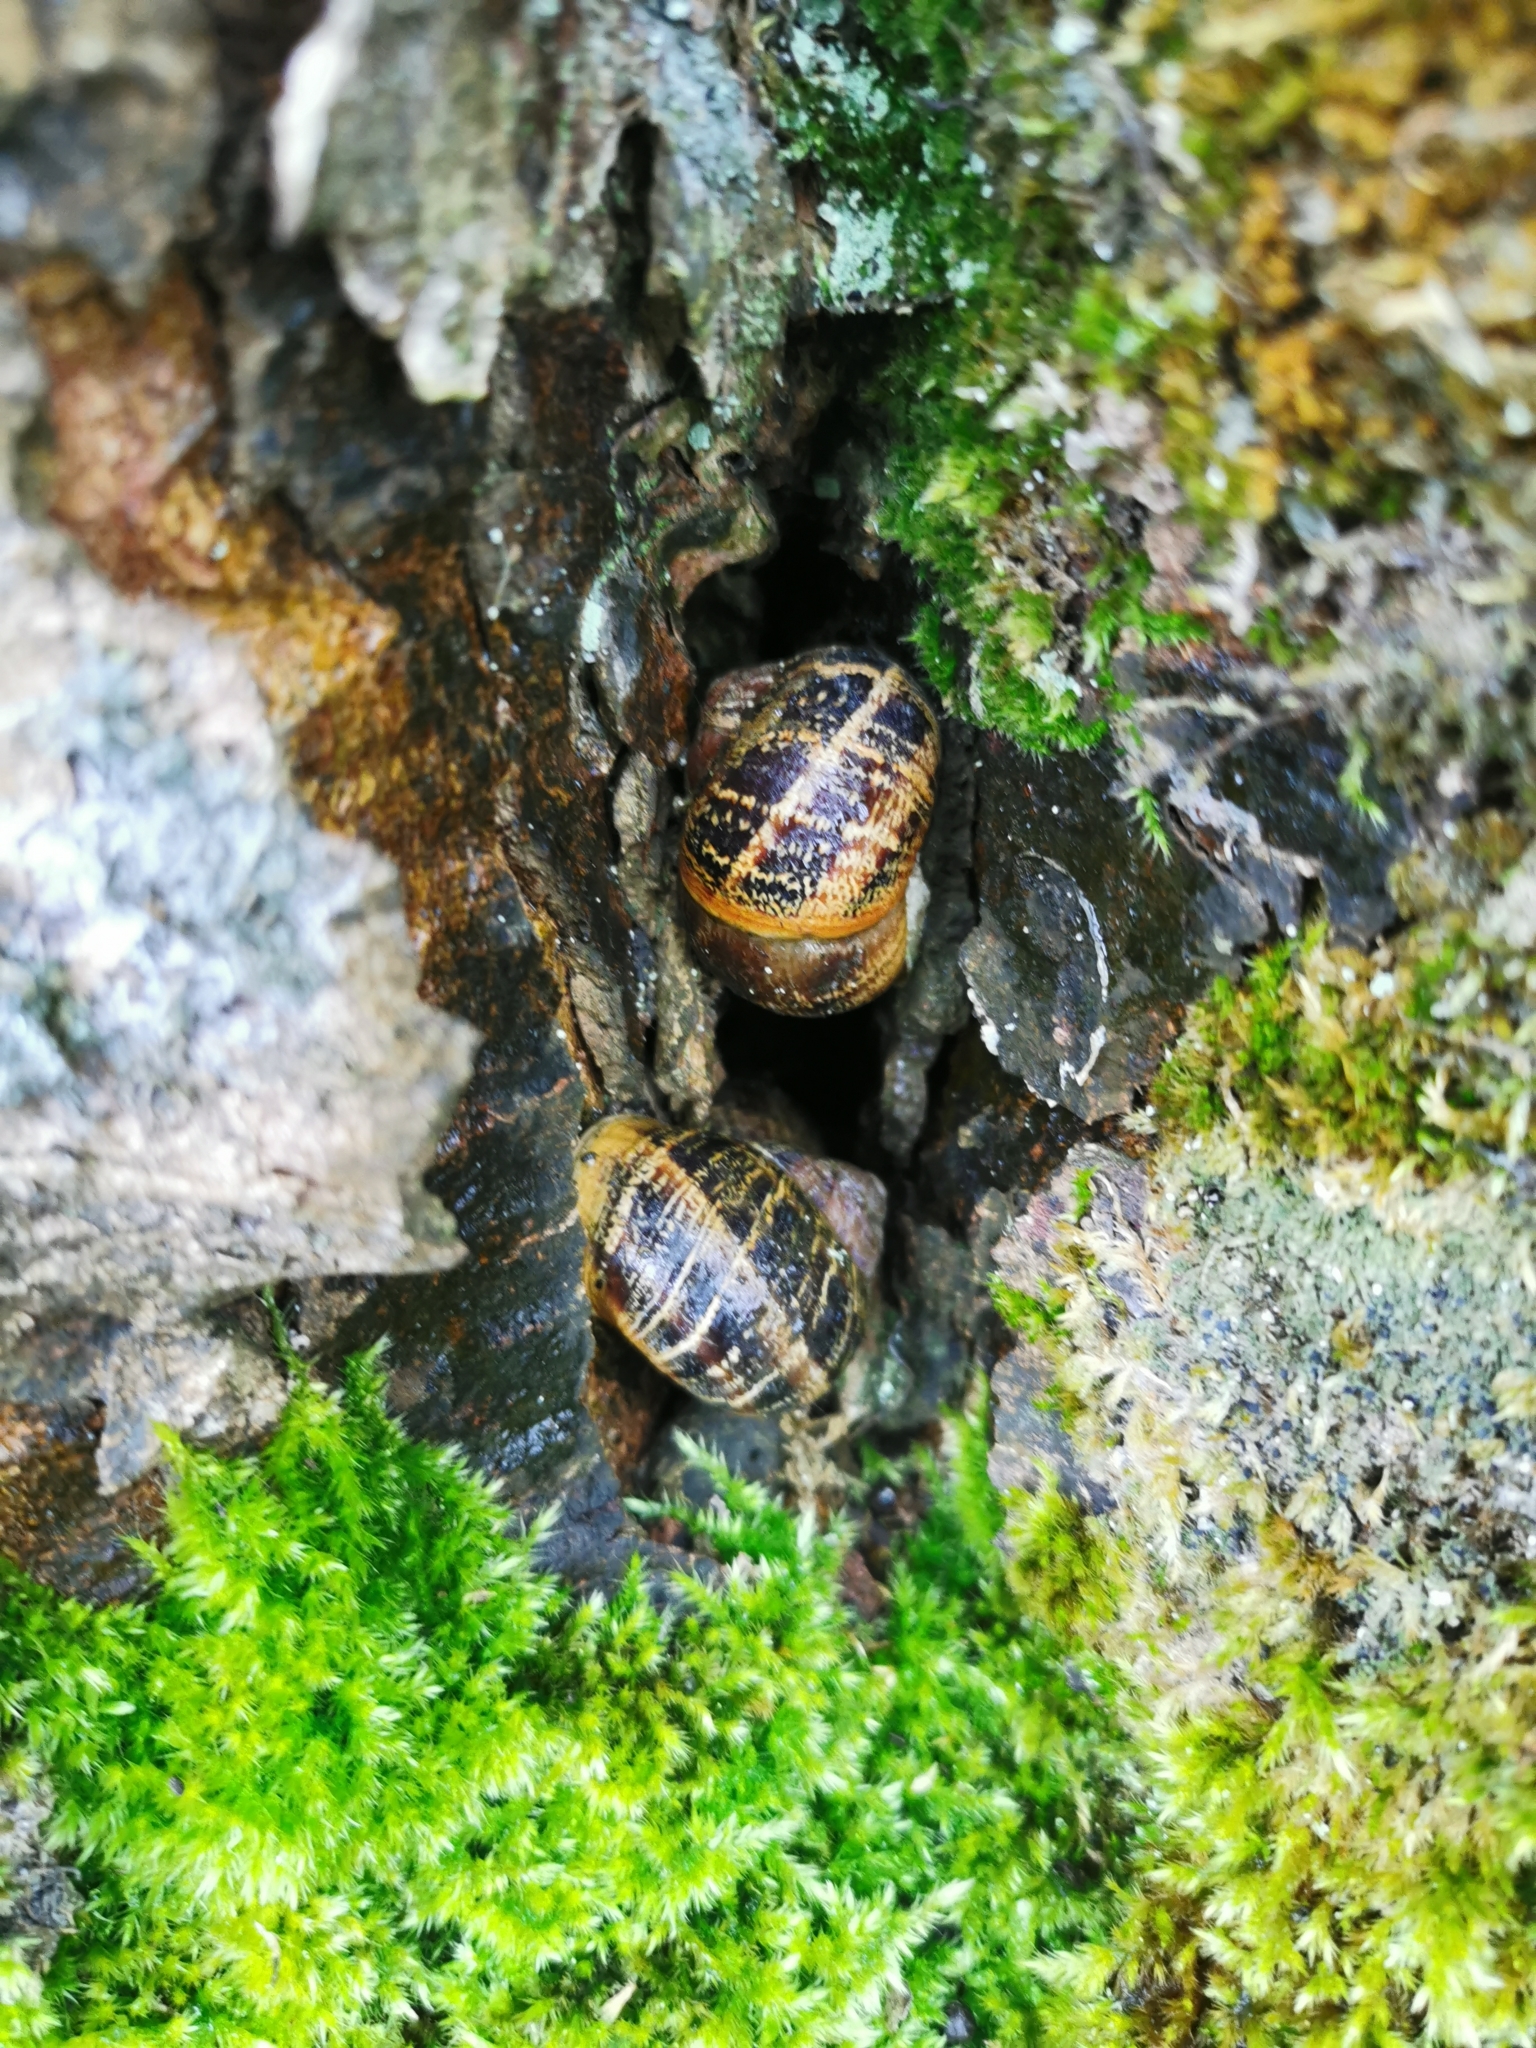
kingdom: Animalia
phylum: Mollusca
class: Gastropoda
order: Stylommatophora
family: Helicidae
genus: Cornu
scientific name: Cornu aspersum
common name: Brown garden snail
